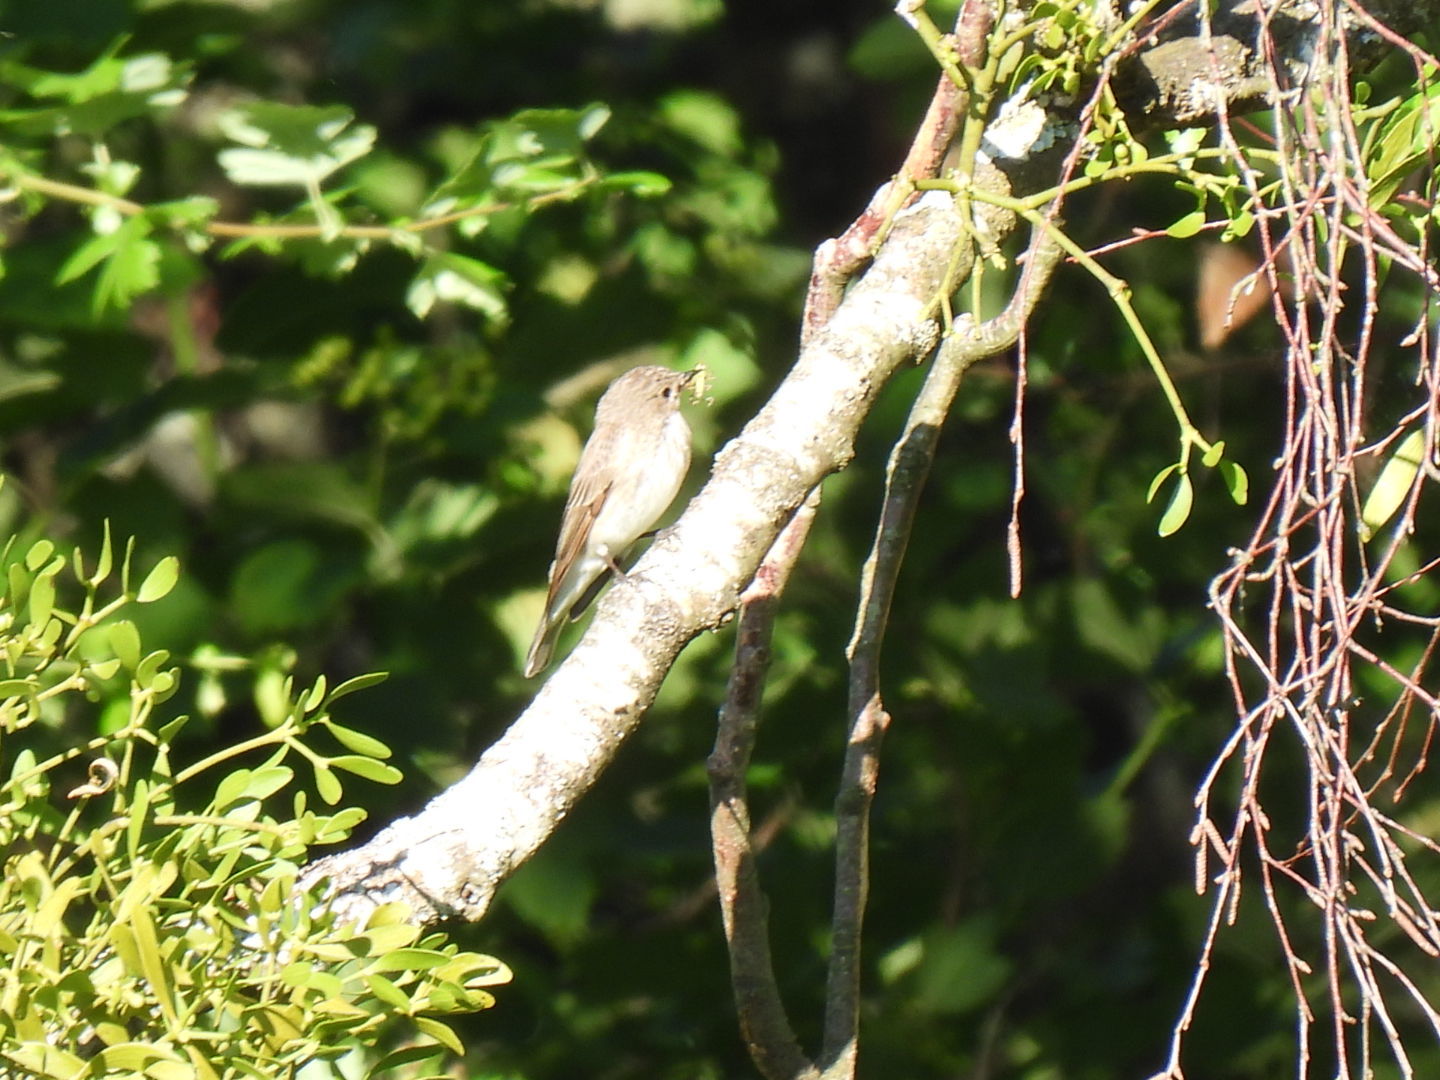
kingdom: Animalia
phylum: Chordata
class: Aves
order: Passeriformes
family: Muscicapidae
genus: Muscicapa
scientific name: Muscicapa striata
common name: Spotted flycatcher
